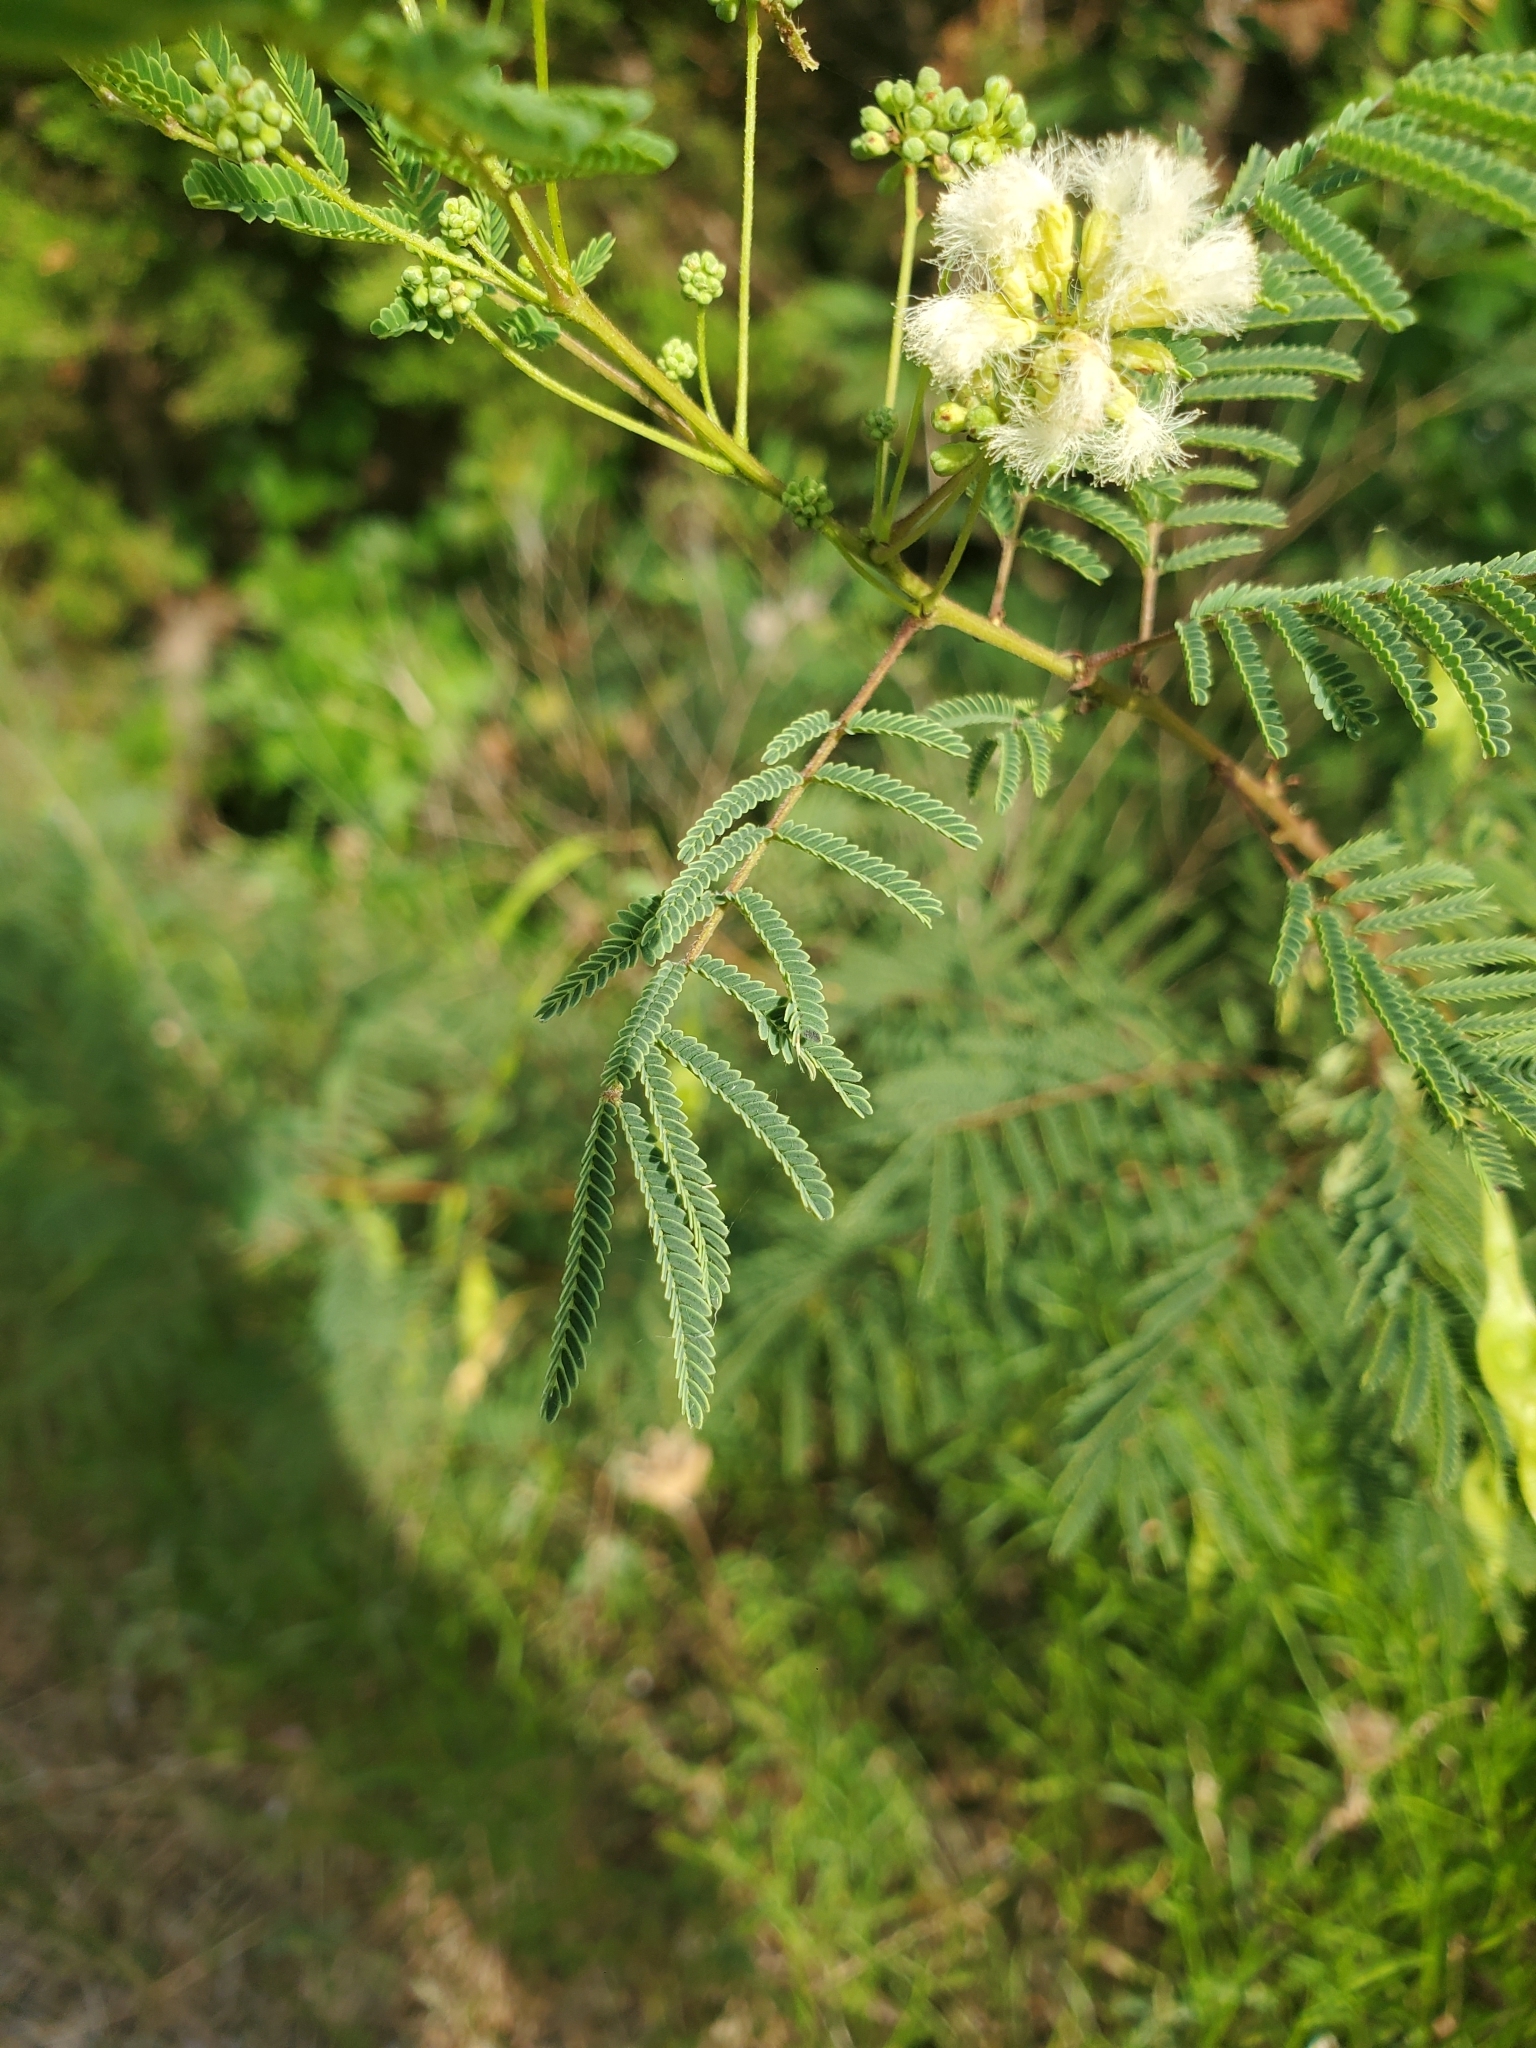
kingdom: Plantae
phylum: Tracheophyta
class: Magnoliopsida
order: Fabales
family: Fabaceae
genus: Acaciella
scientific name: Acaciella angustissima
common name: Prairie acacia
